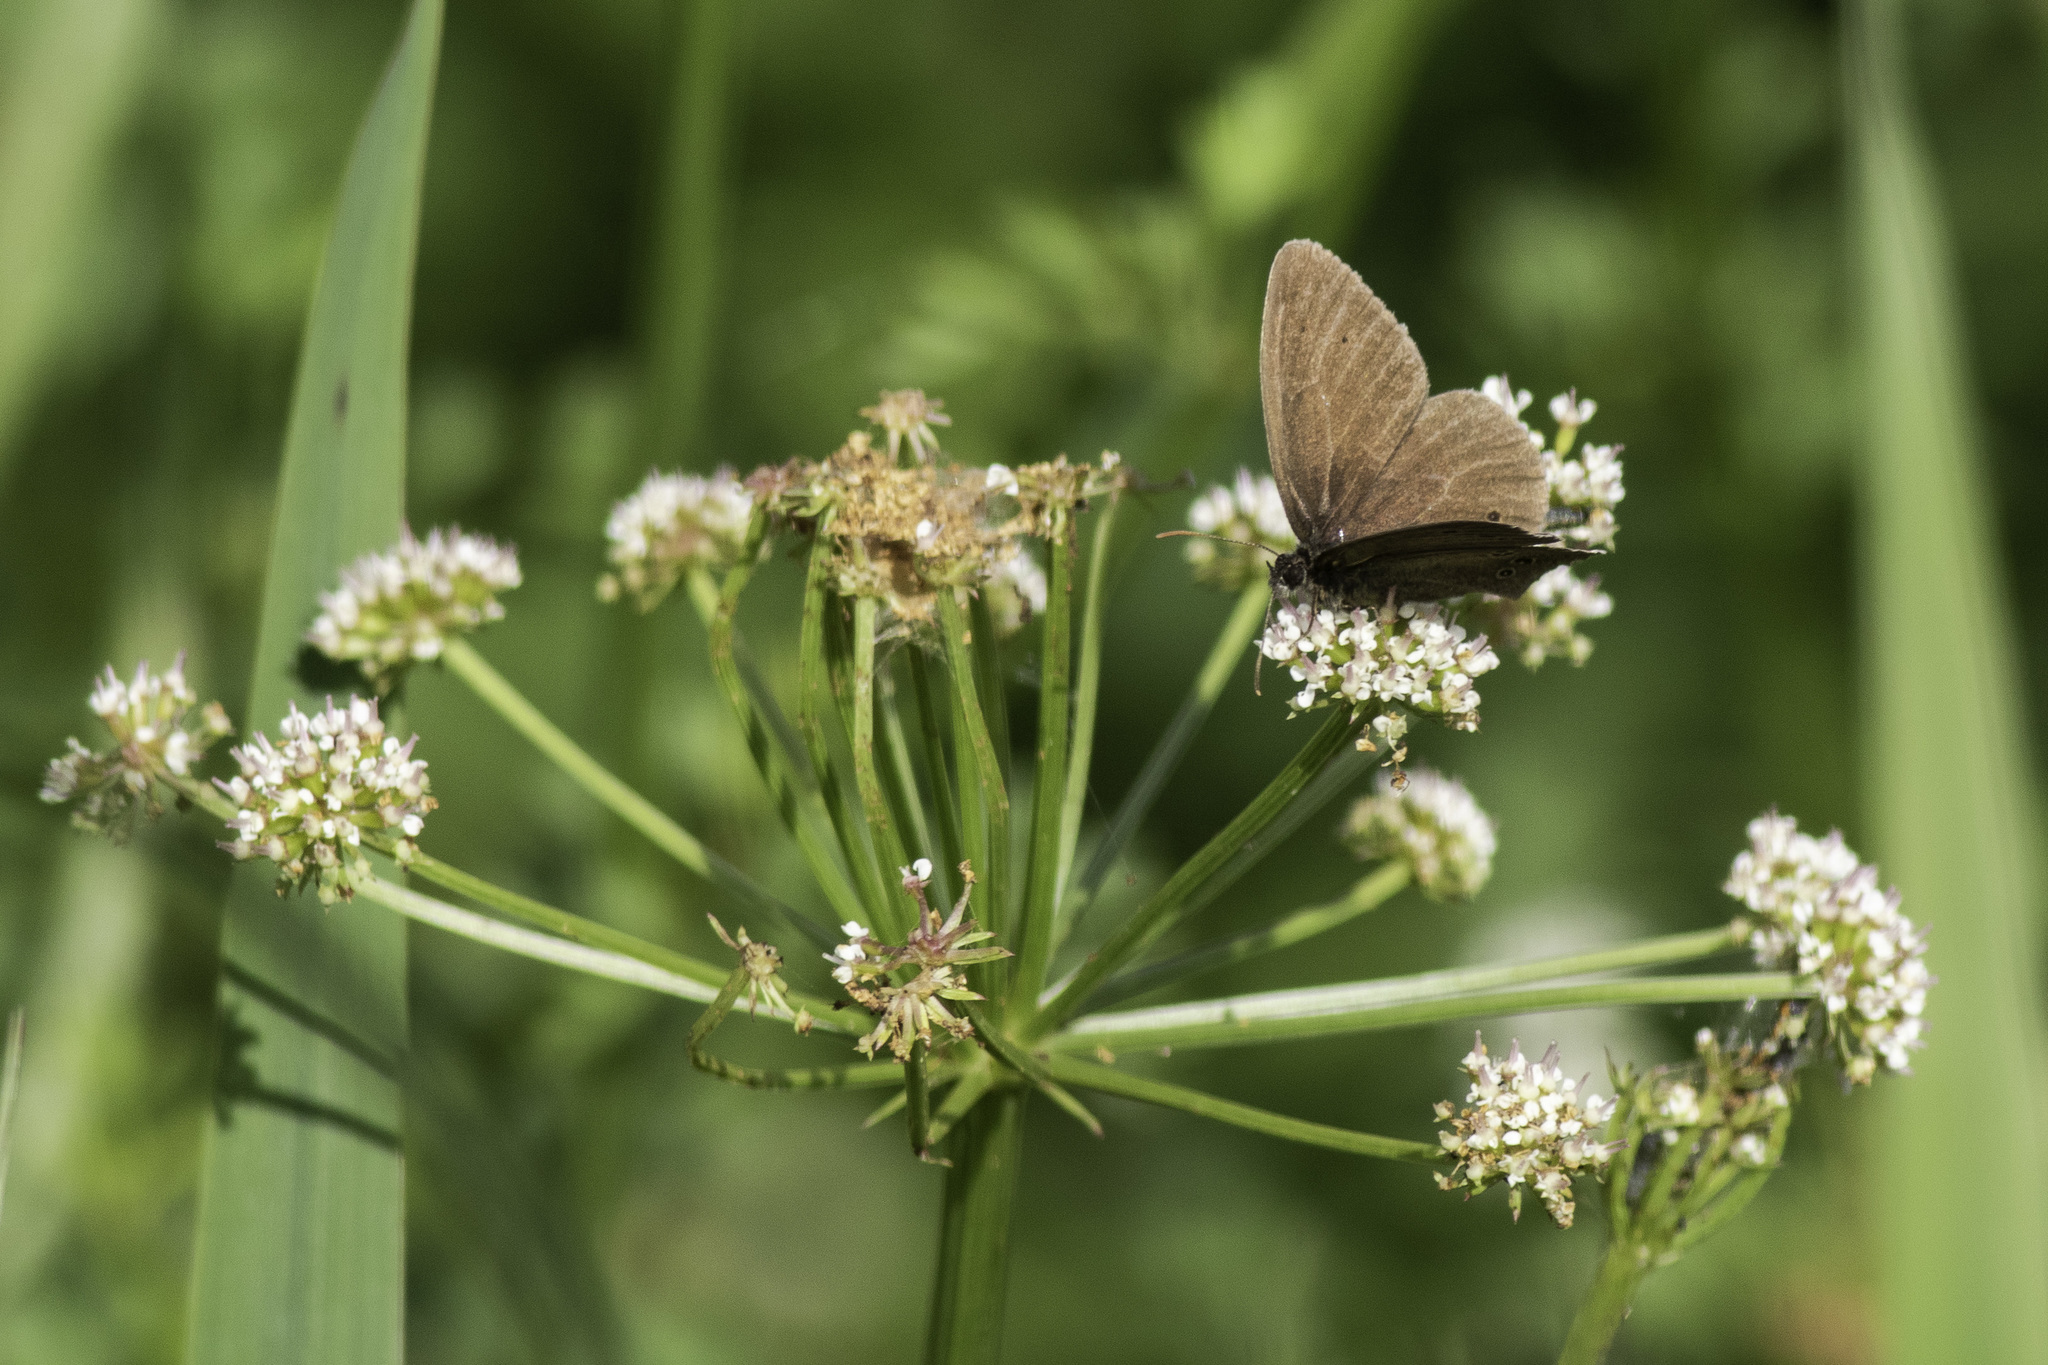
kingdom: Animalia
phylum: Arthropoda
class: Insecta
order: Lepidoptera
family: Nymphalidae
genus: Aphantopus
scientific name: Aphantopus hyperantus
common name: Ringlet
